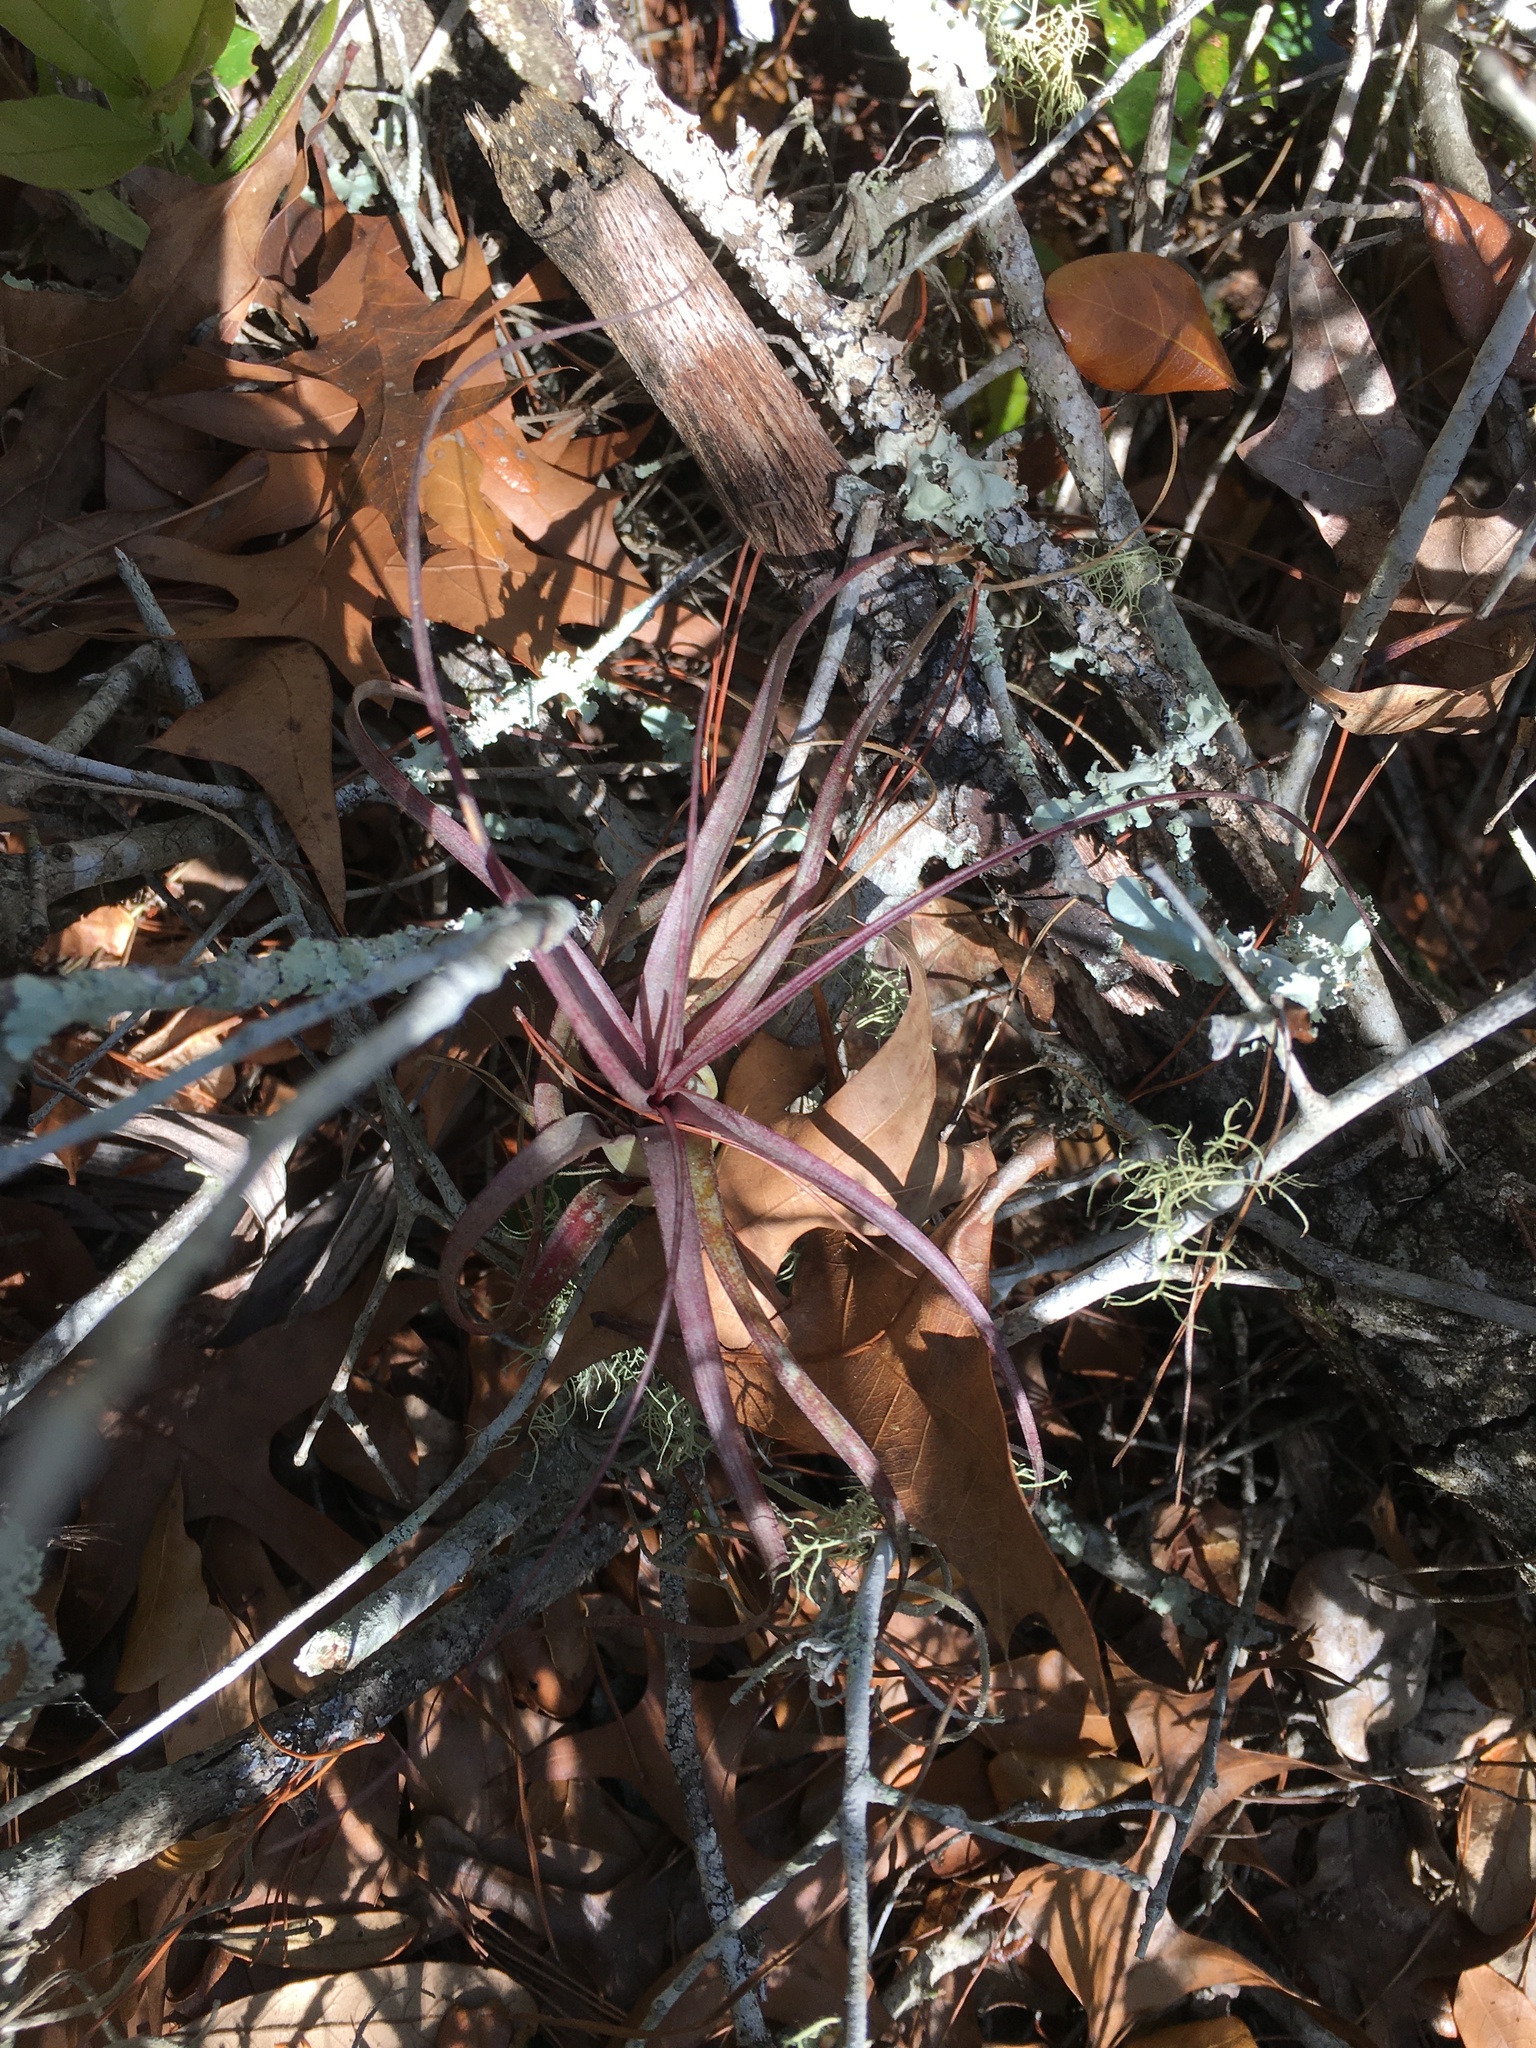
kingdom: Plantae
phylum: Tracheophyta
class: Liliopsida
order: Poales
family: Bromeliaceae
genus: Tillandsia
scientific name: Tillandsia balbisiana
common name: Northern needleleaf
